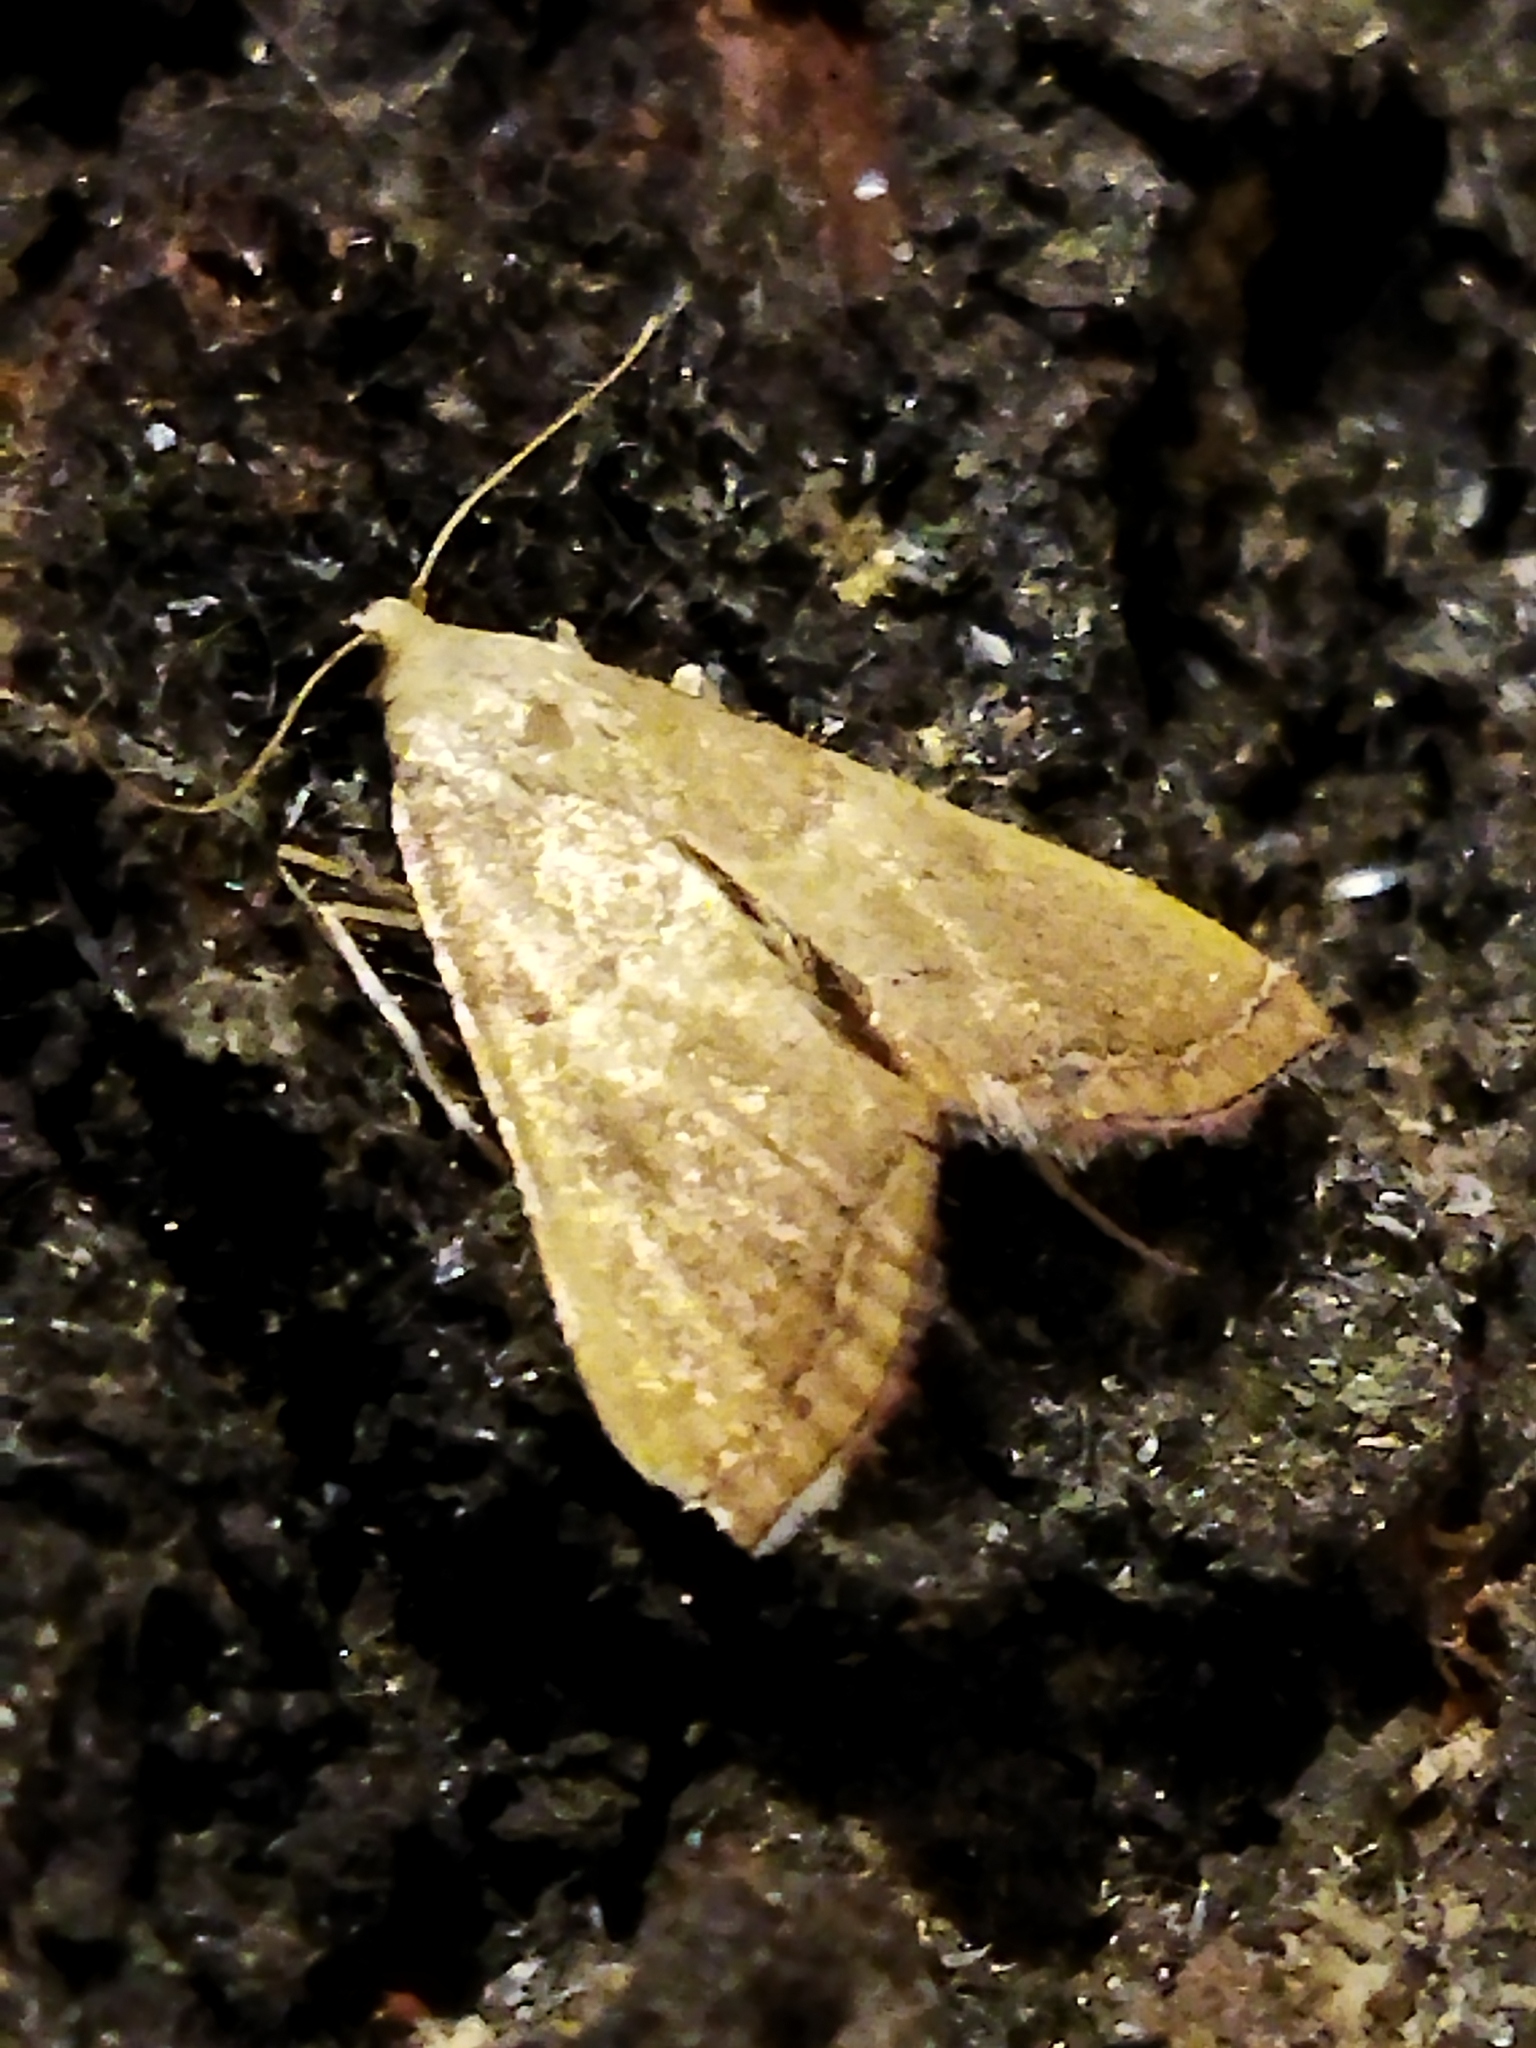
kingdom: Animalia
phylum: Arthropoda
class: Insecta
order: Lepidoptera
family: Pyralidae
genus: Endotricha
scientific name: Endotricha flammealis
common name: Rosy tabby
